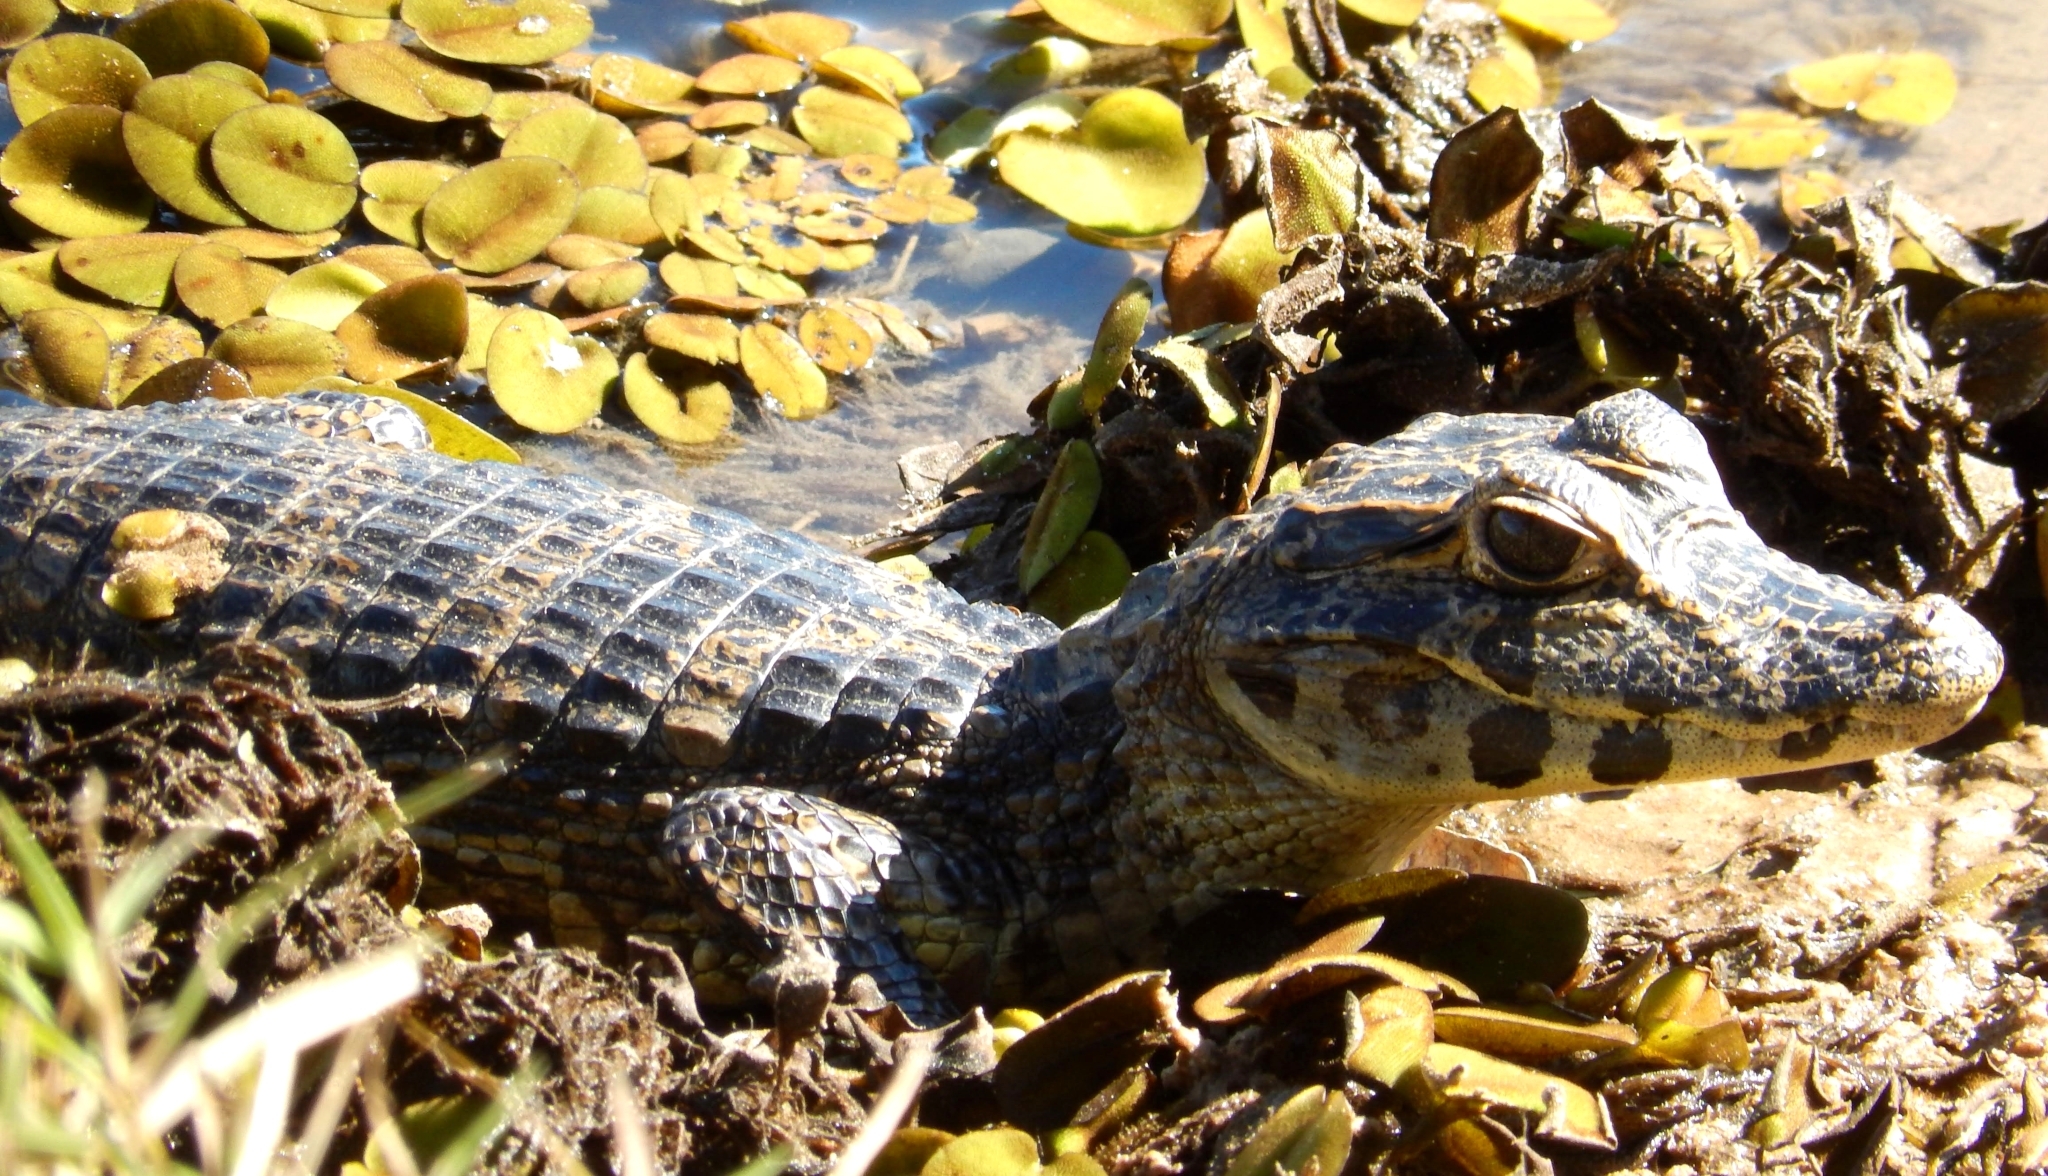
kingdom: Animalia
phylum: Chordata
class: Crocodylia
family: Alligatoridae
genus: Caiman
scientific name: Caiman yacare
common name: Yacare caiman
